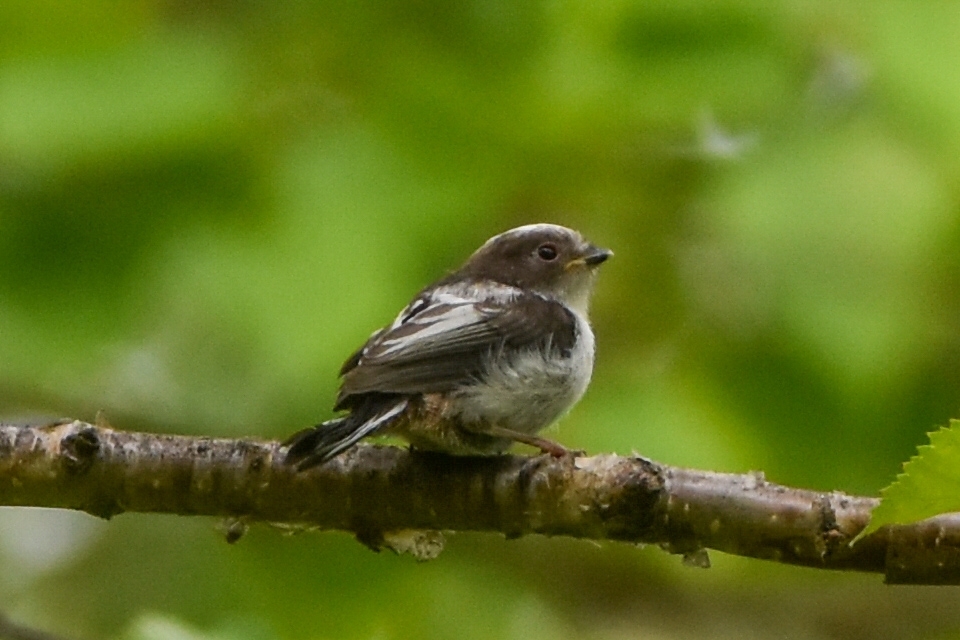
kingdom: Animalia
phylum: Chordata
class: Aves
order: Passeriformes
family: Aegithalidae
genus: Aegithalos
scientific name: Aegithalos caudatus
